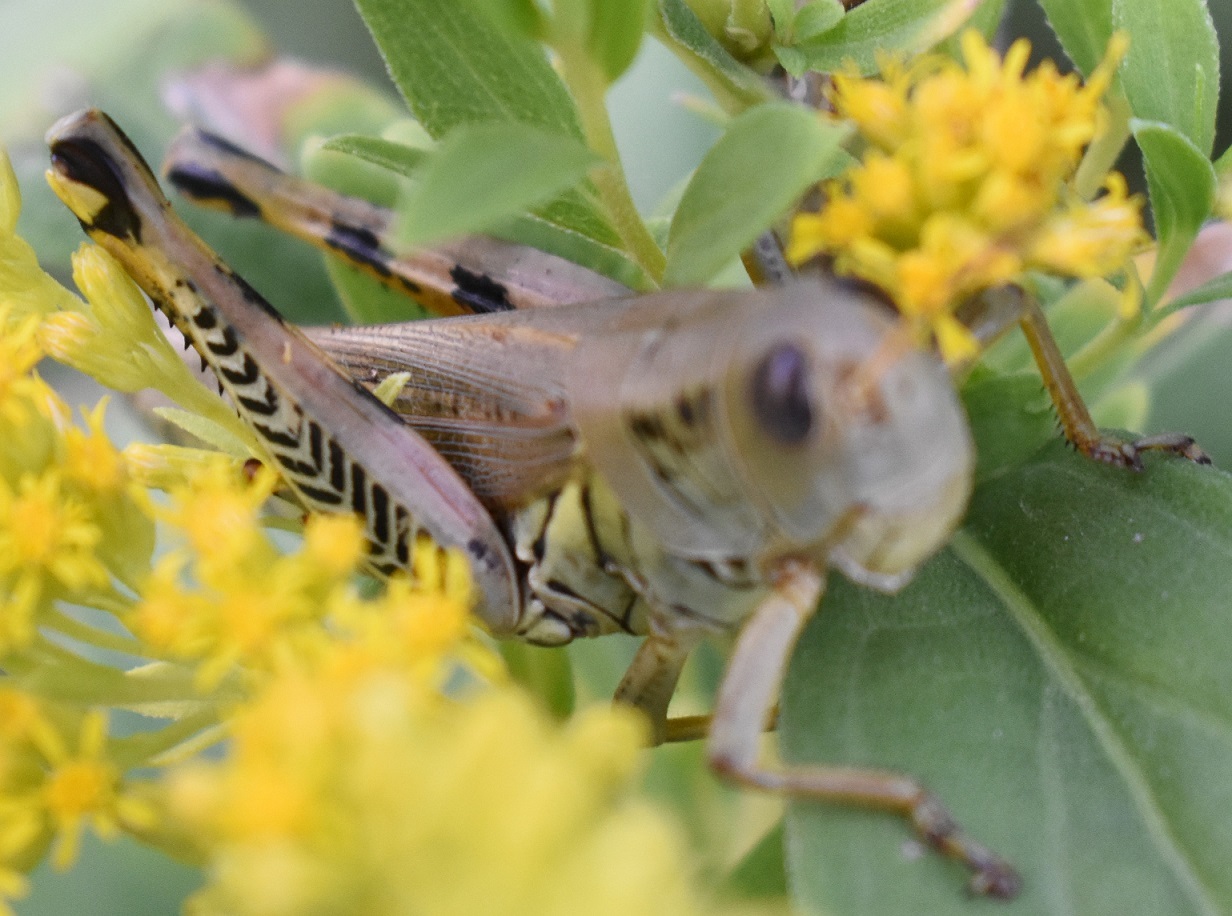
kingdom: Animalia
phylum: Arthropoda
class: Insecta
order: Orthoptera
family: Acrididae
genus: Melanoplus
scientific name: Melanoplus differentialis
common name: Differential grasshopper
